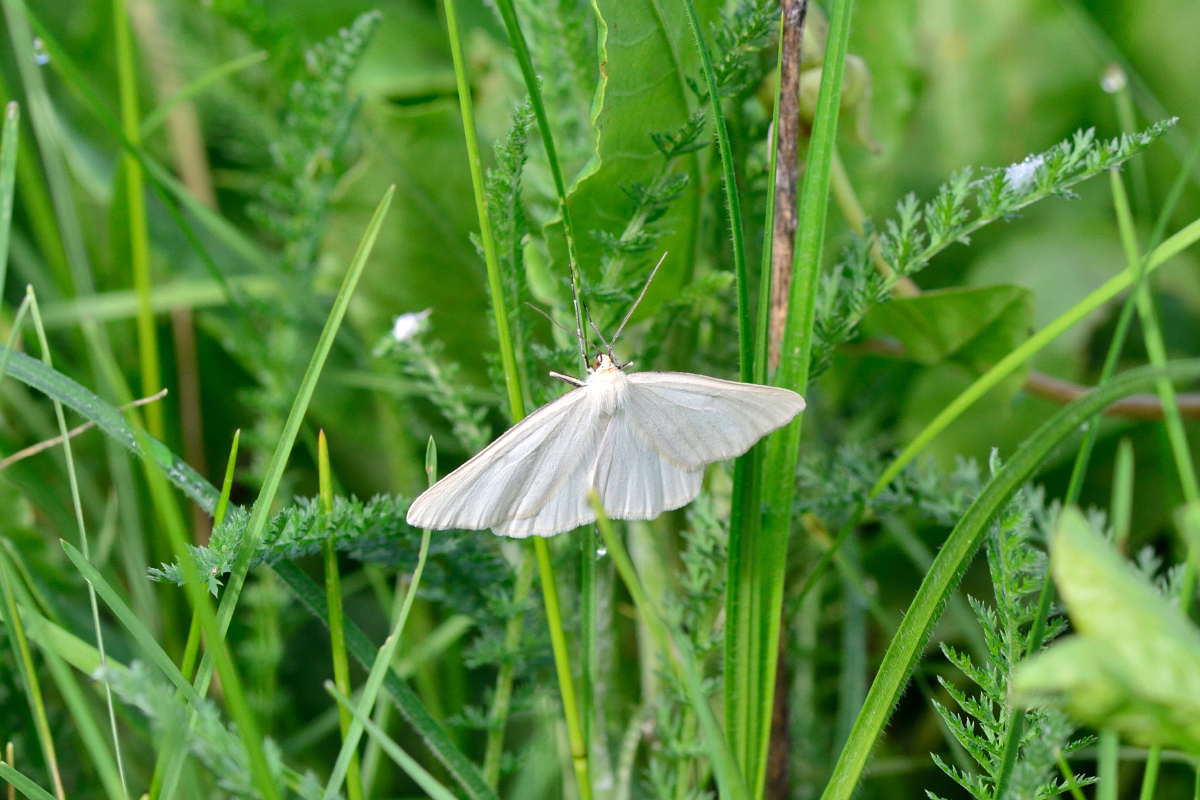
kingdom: Animalia
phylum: Arthropoda
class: Insecta
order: Lepidoptera
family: Geometridae
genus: Siona
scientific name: Siona lineata
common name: Black-veined moth
